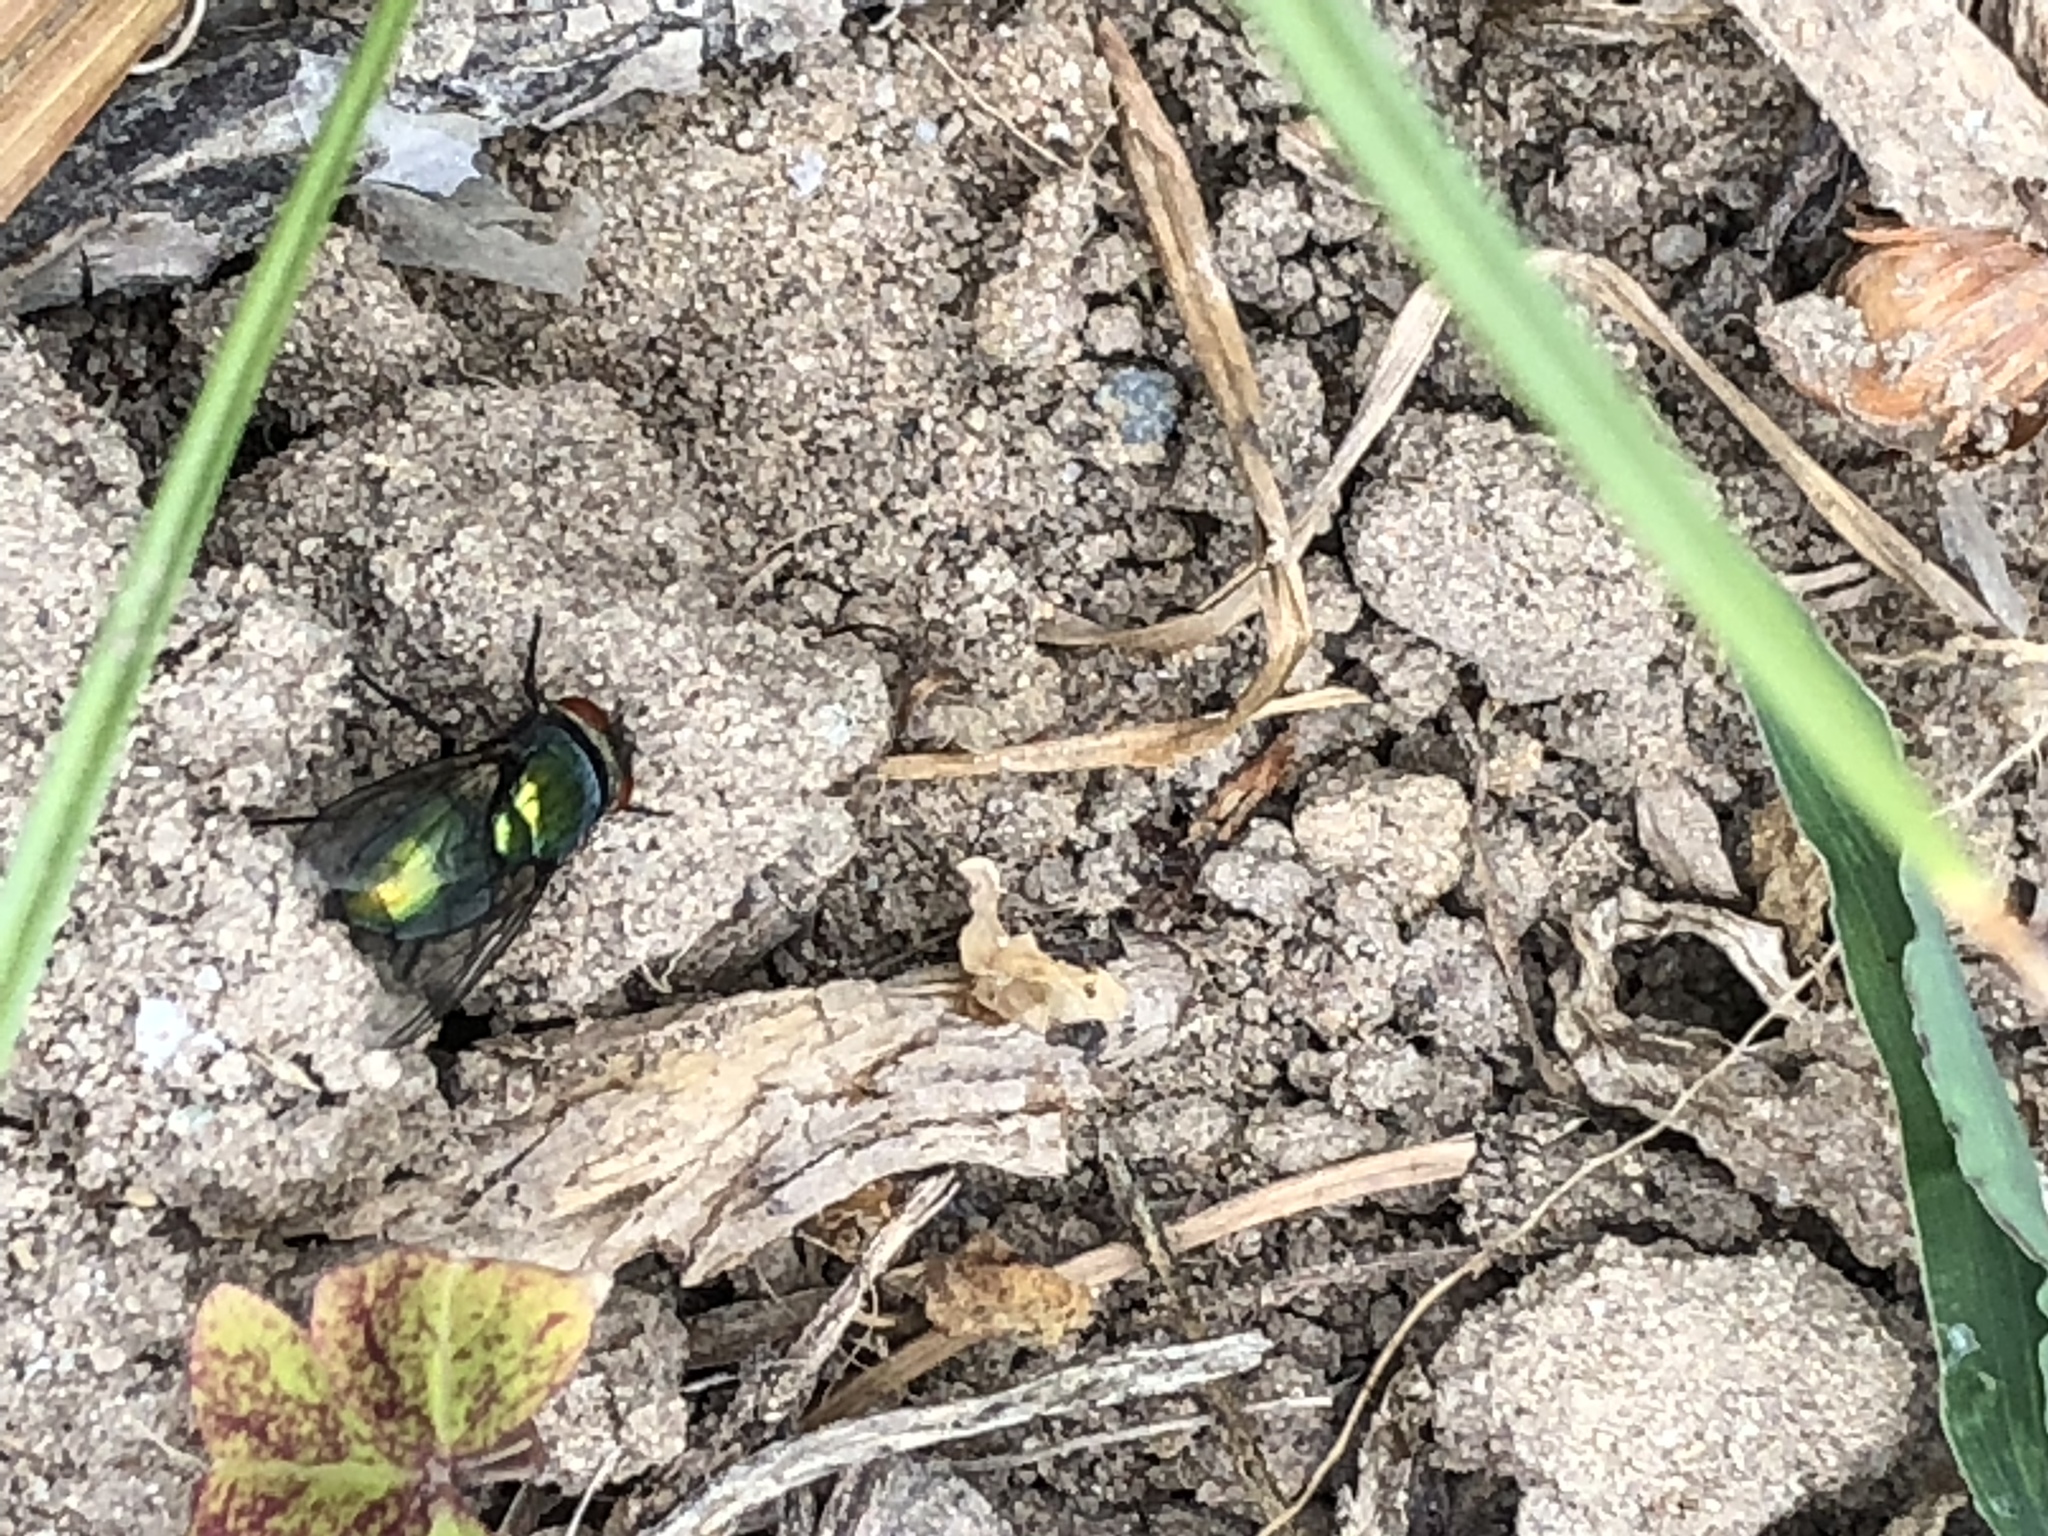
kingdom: Animalia
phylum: Arthropoda
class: Insecta
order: Diptera
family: Calliphoridae
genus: Lucilia
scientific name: Lucilia sericata
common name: Blow fly
